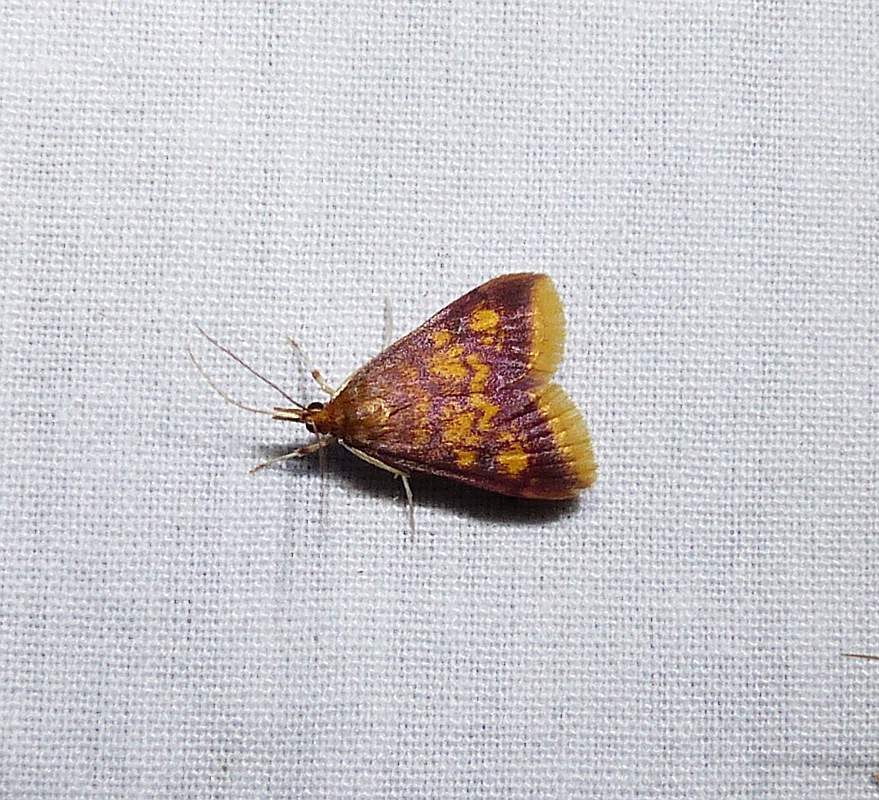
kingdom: Animalia
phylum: Arthropoda
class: Insecta
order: Lepidoptera
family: Crambidae
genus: Pyrausta
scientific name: Pyrausta acrionalis
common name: Mint-loving pyrausta moth
